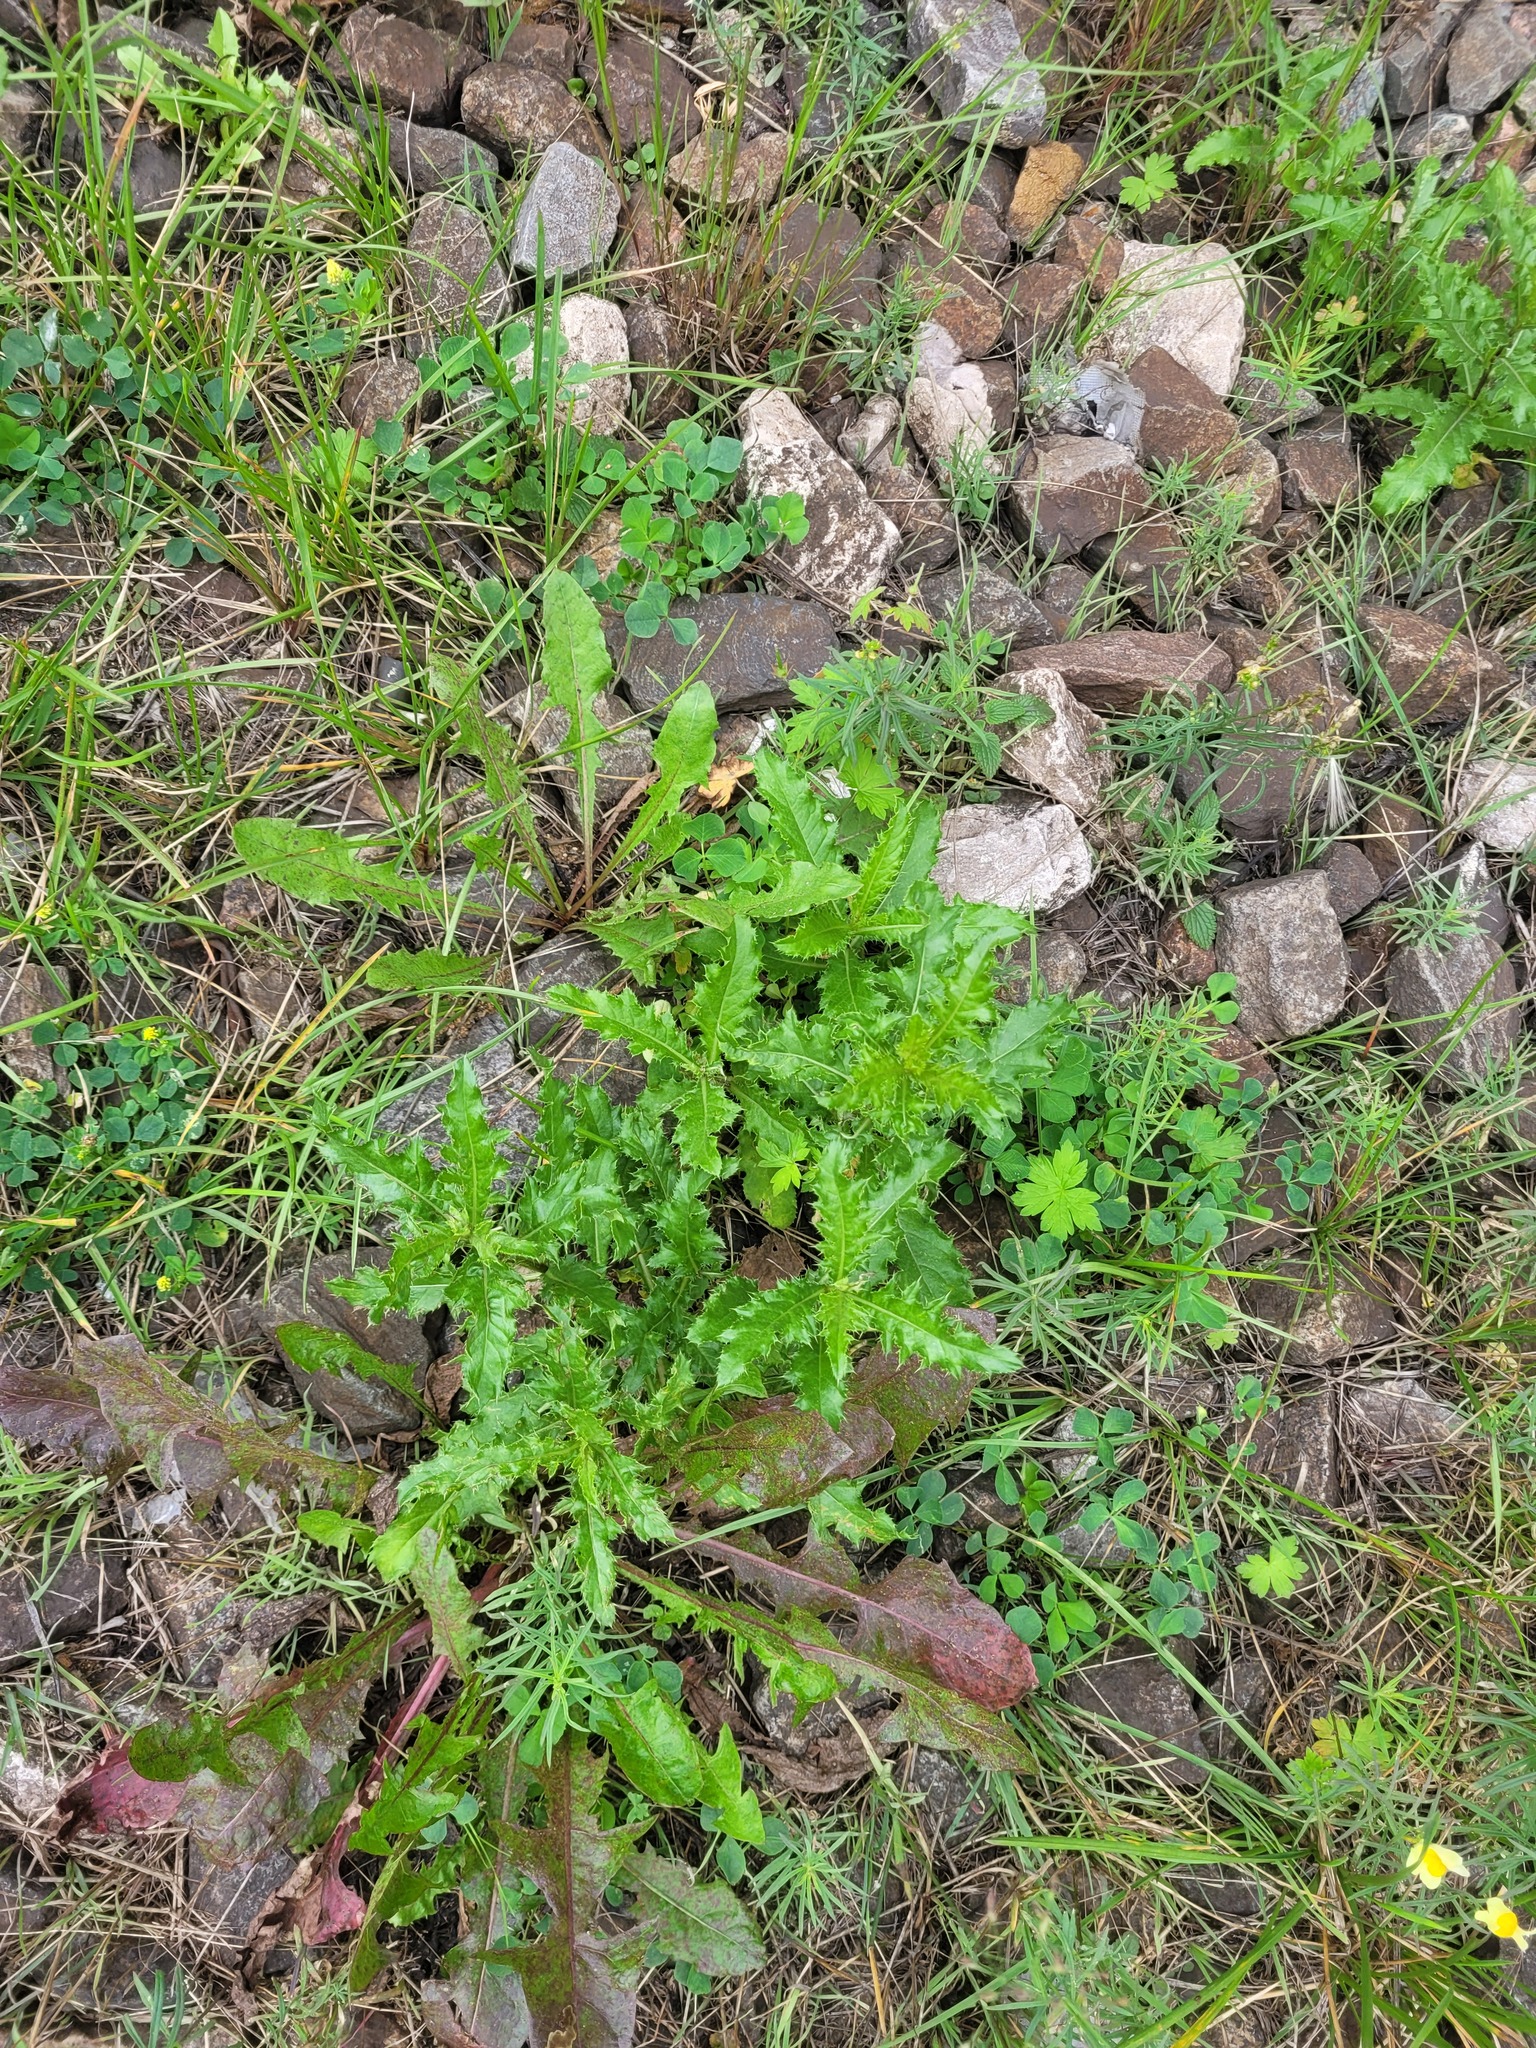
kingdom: Plantae
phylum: Tracheophyta
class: Magnoliopsida
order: Asterales
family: Asteraceae
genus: Cirsium
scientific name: Cirsium arvense
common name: Creeping thistle
